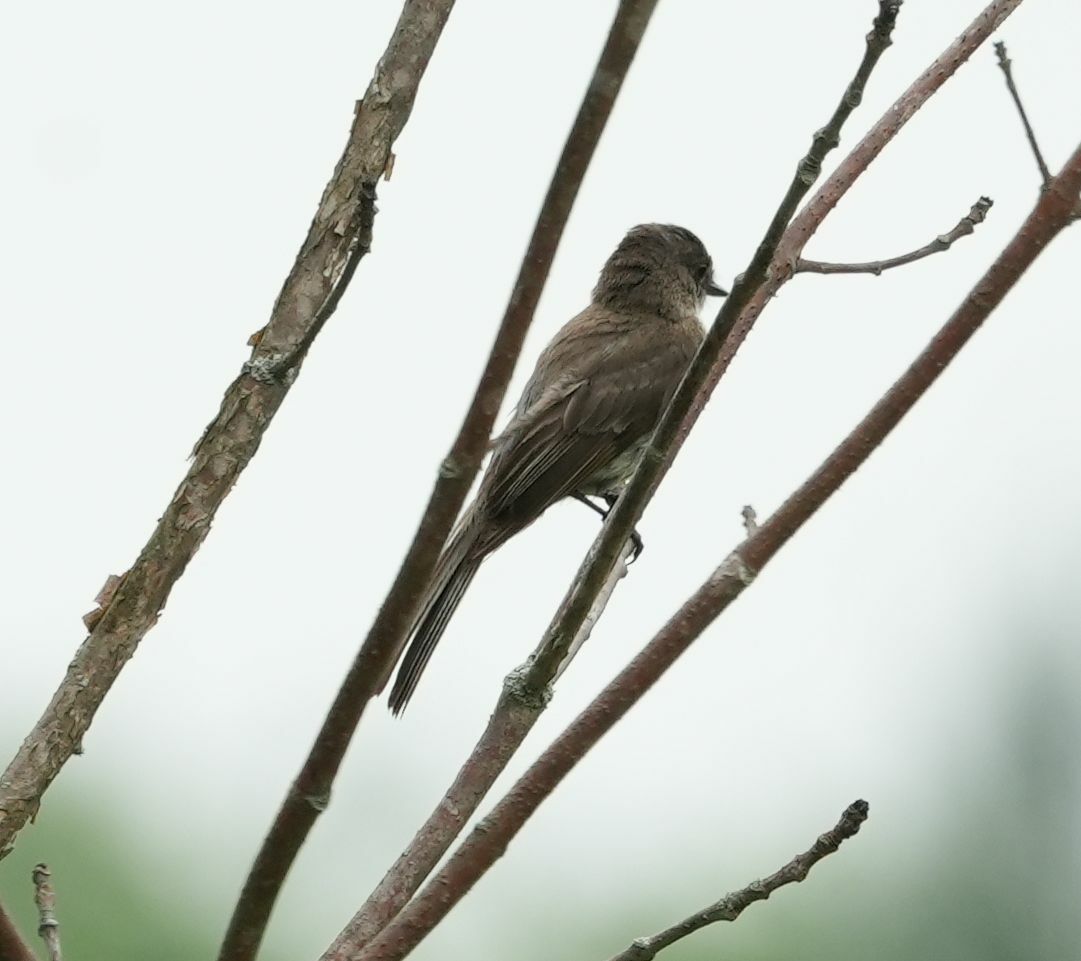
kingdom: Animalia
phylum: Chordata
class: Aves
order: Passeriformes
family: Tyrannidae
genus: Sayornis
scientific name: Sayornis phoebe
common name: Eastern phoebe
